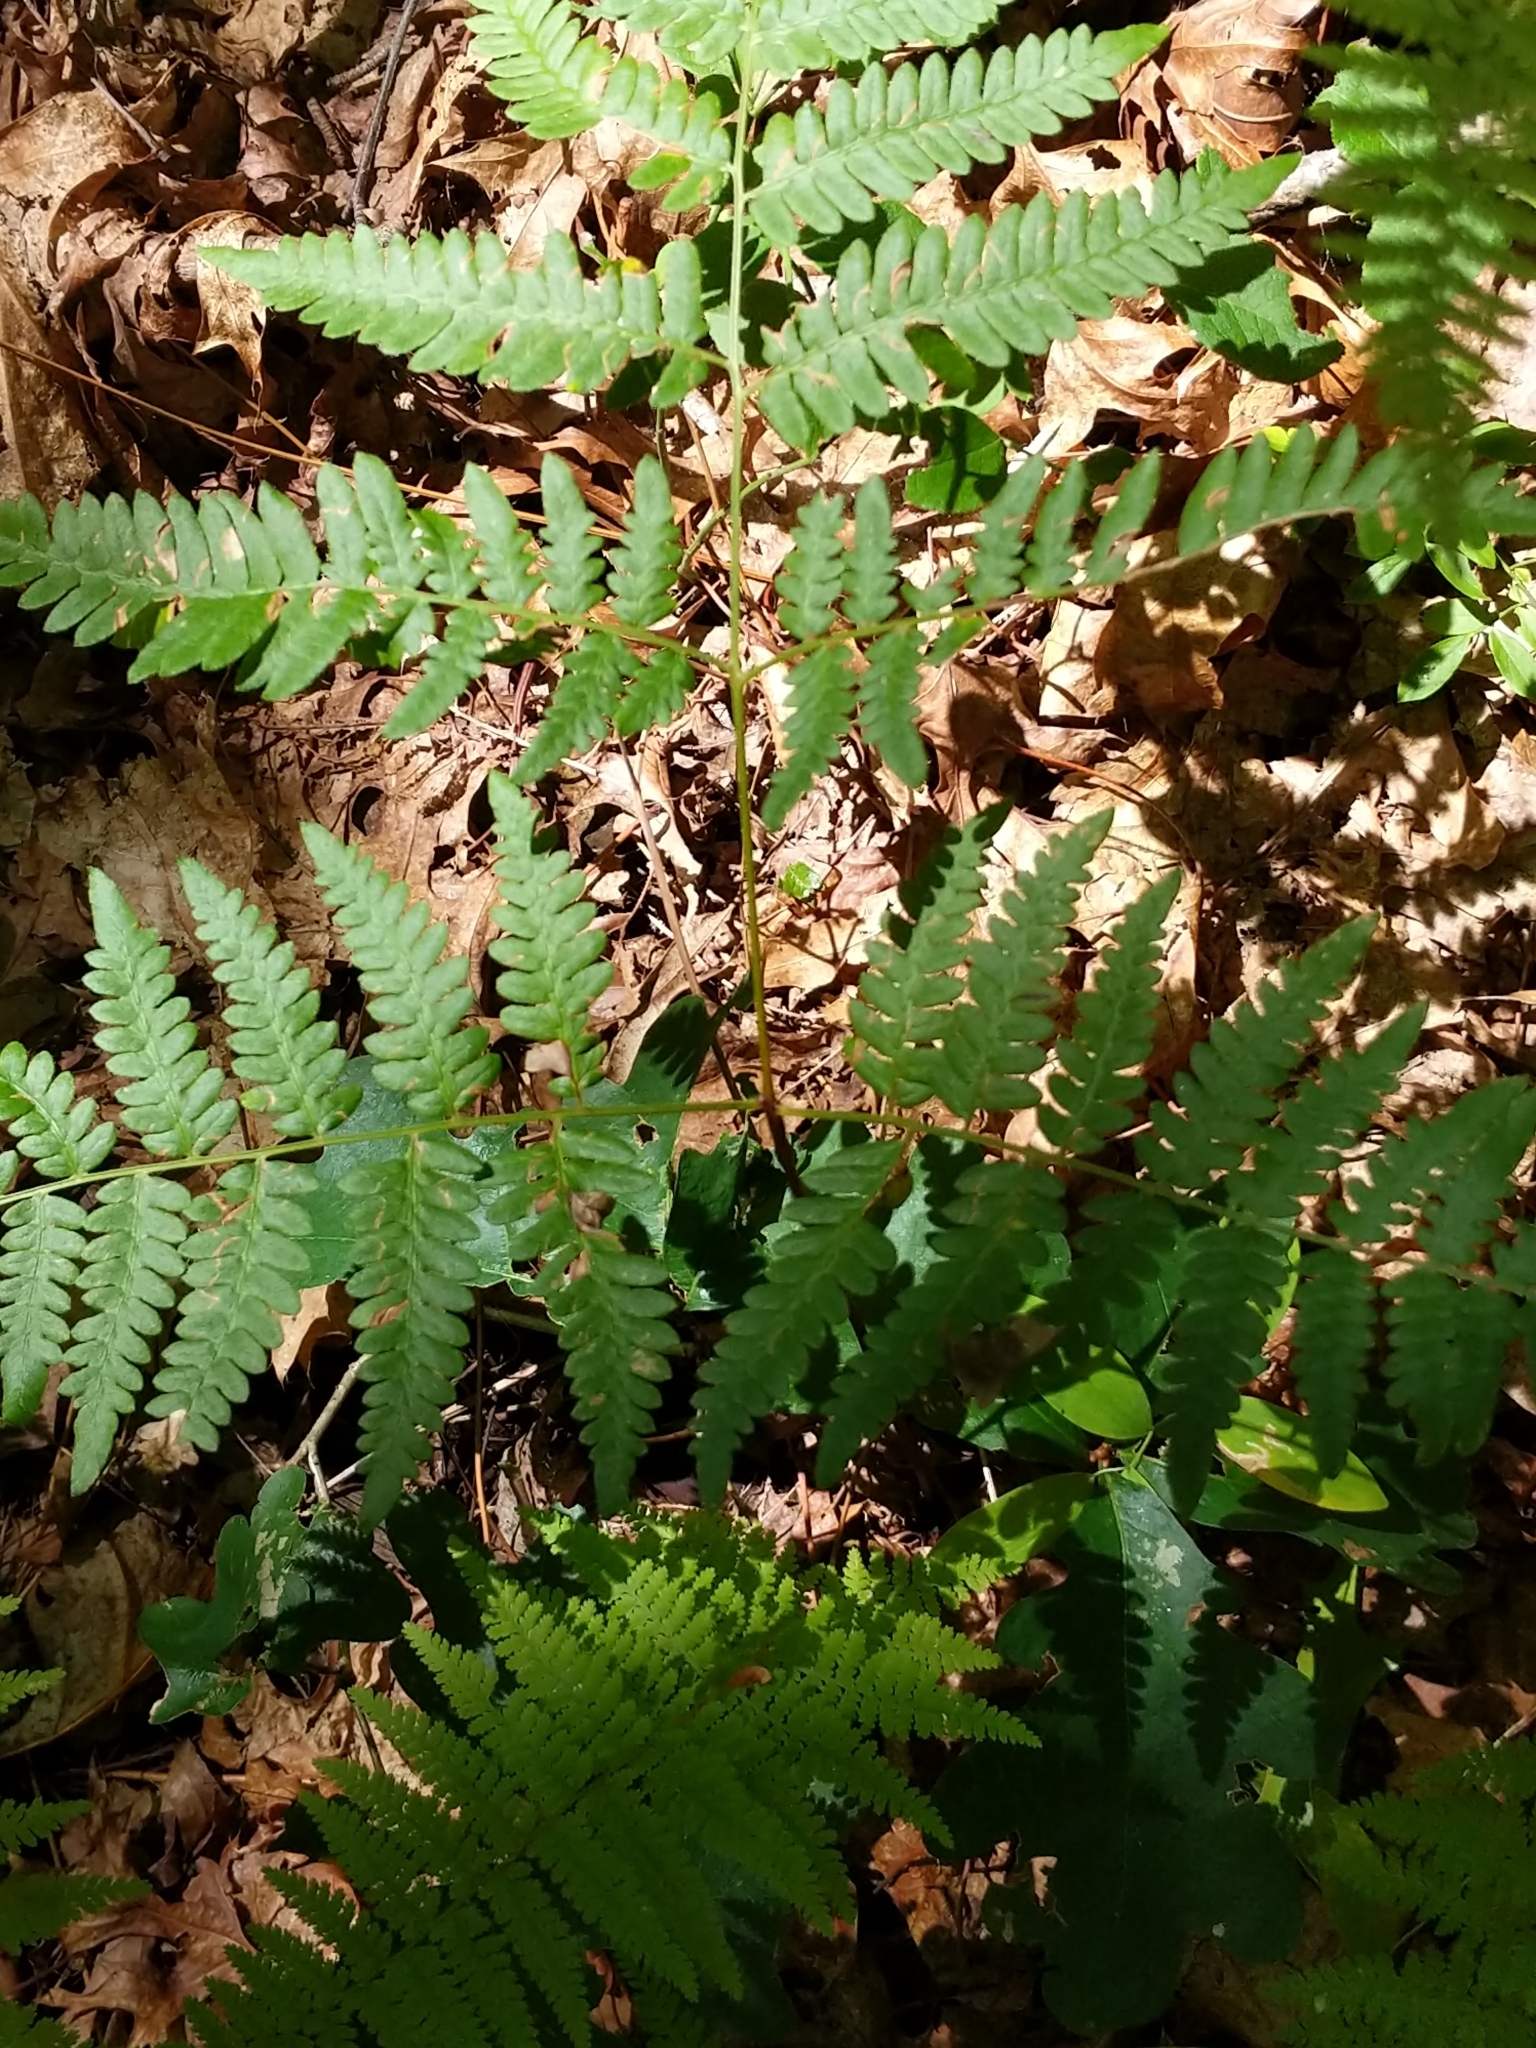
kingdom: Plantae
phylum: Tracheophyta
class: Polypodiopsida
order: Polypodiales
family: Dennstaedtiaceae
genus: Pteridium
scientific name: Pteridium aquilinum
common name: Bracken
